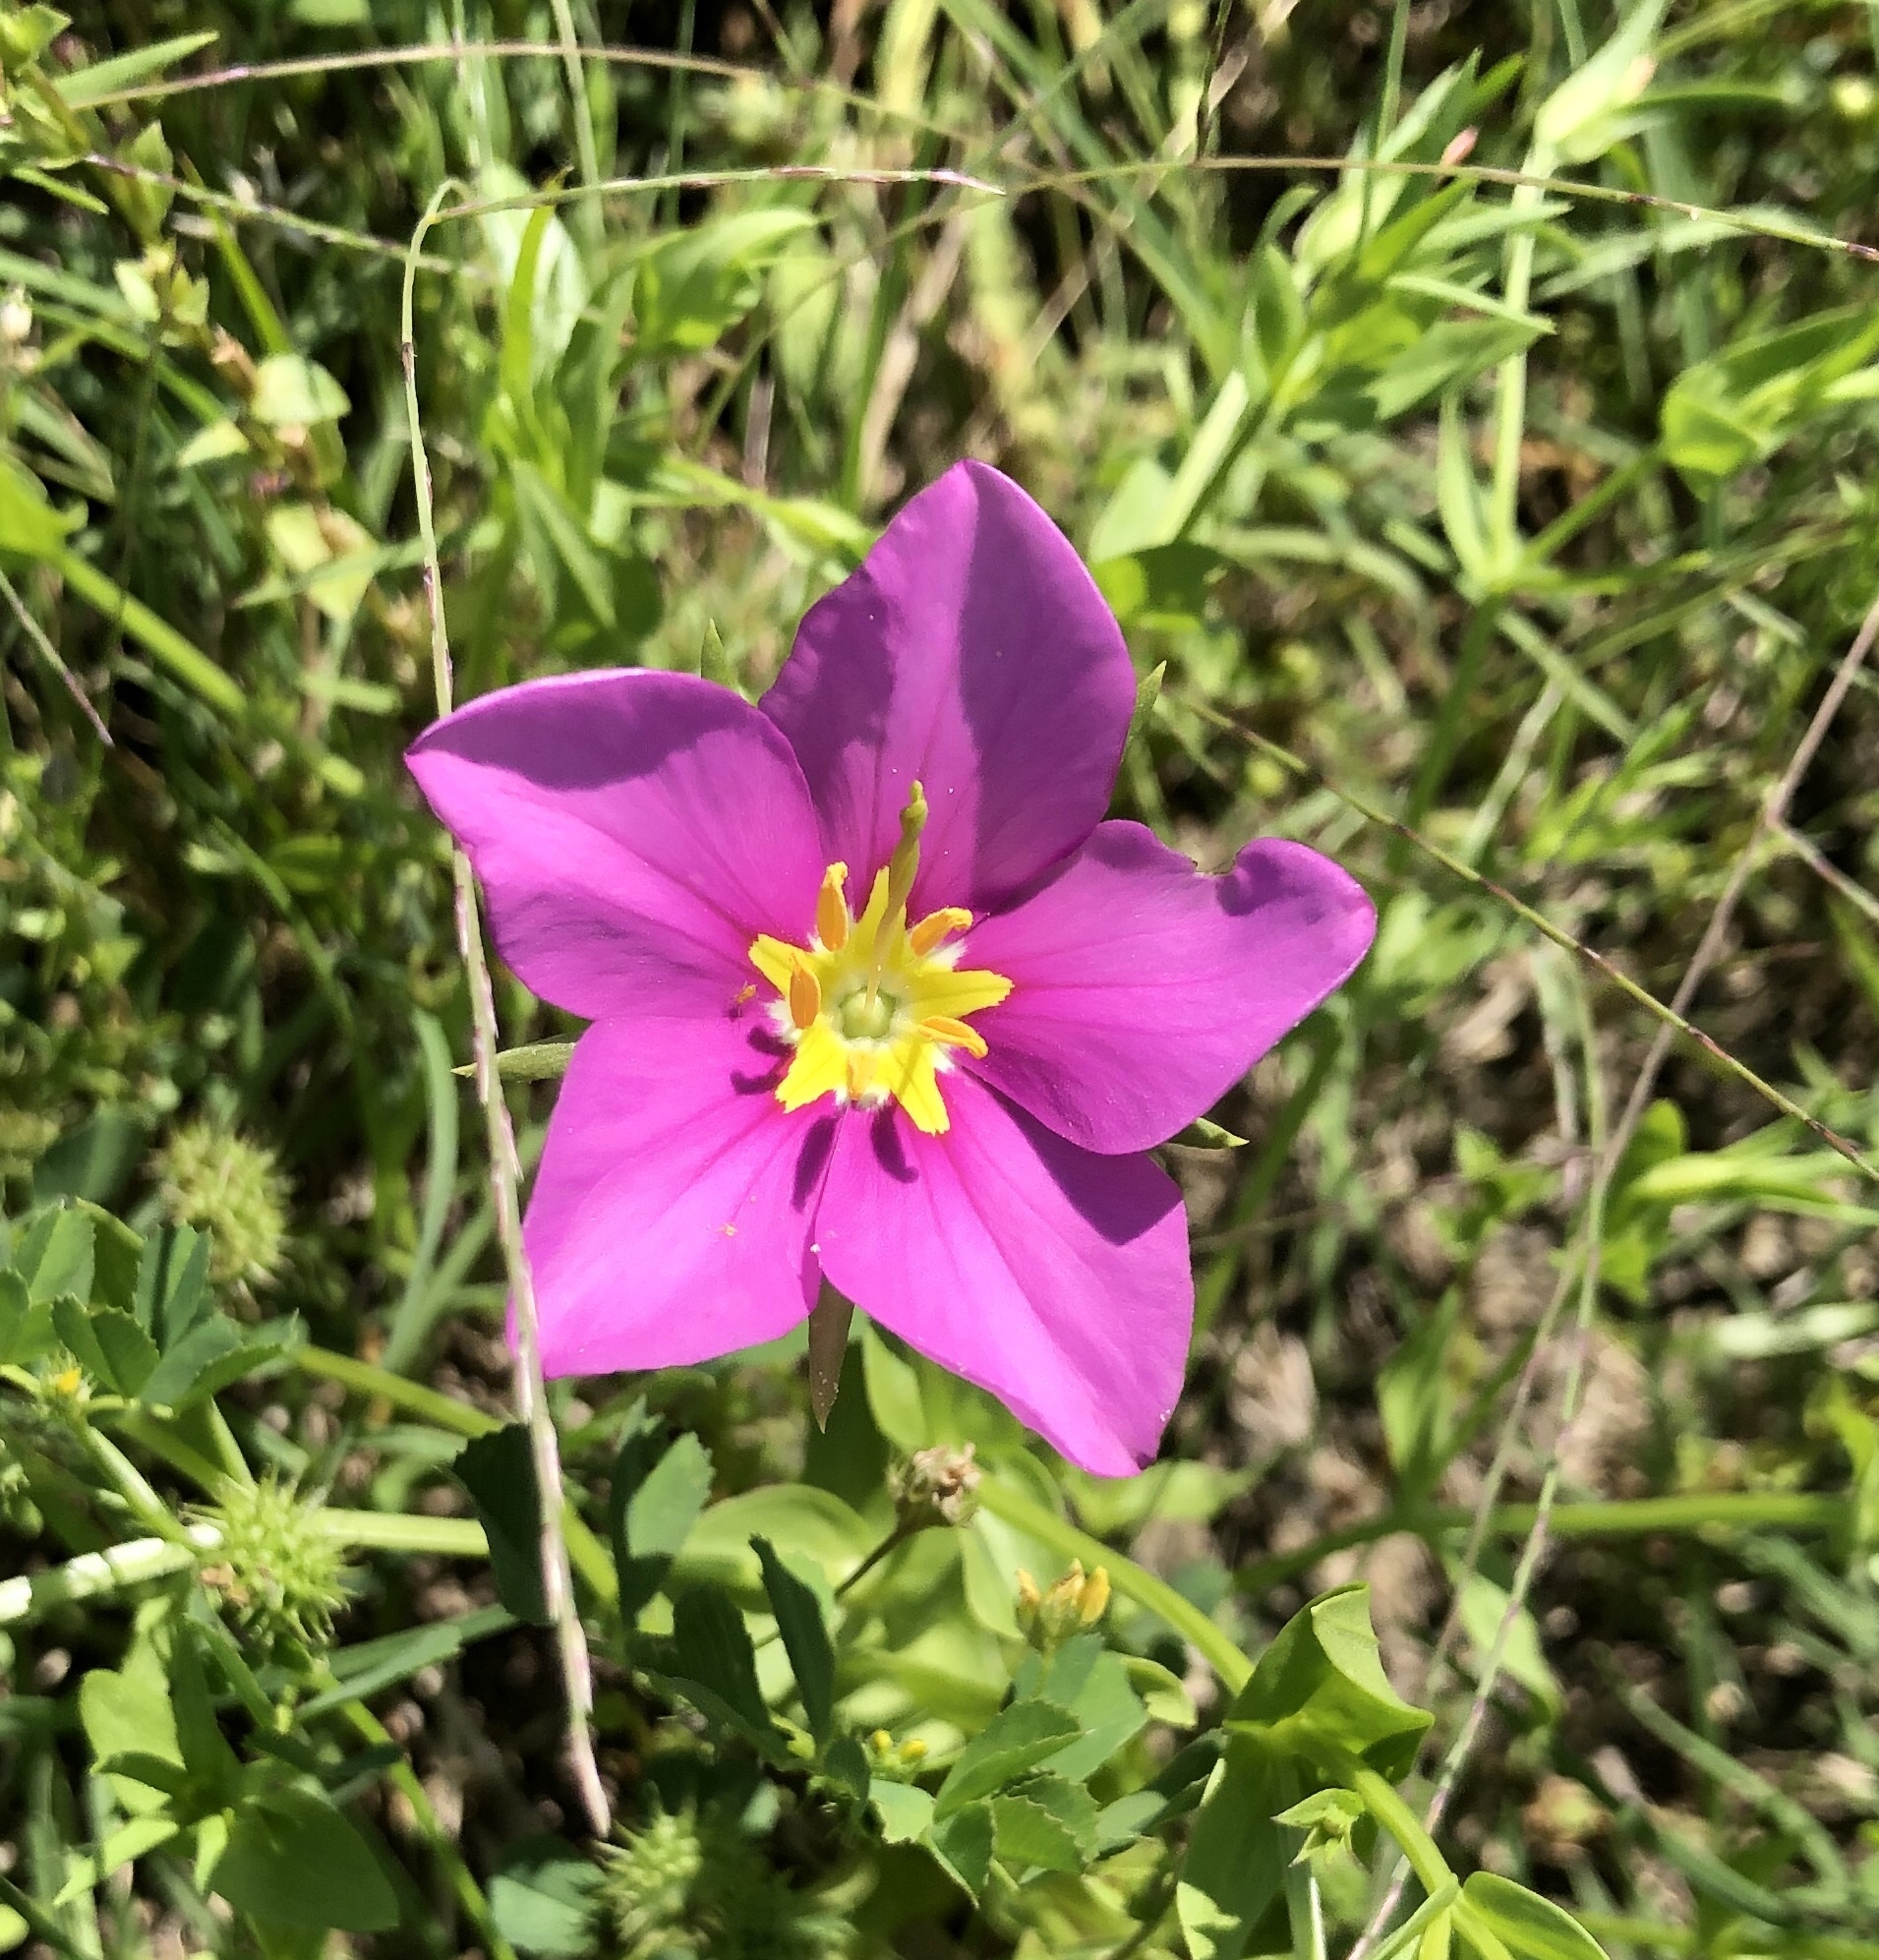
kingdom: Plantae
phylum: Tracheophyta
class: Magnoliopsida
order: Gentianales
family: Gentianaceae
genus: Sabatia
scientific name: Sabatia campestris
